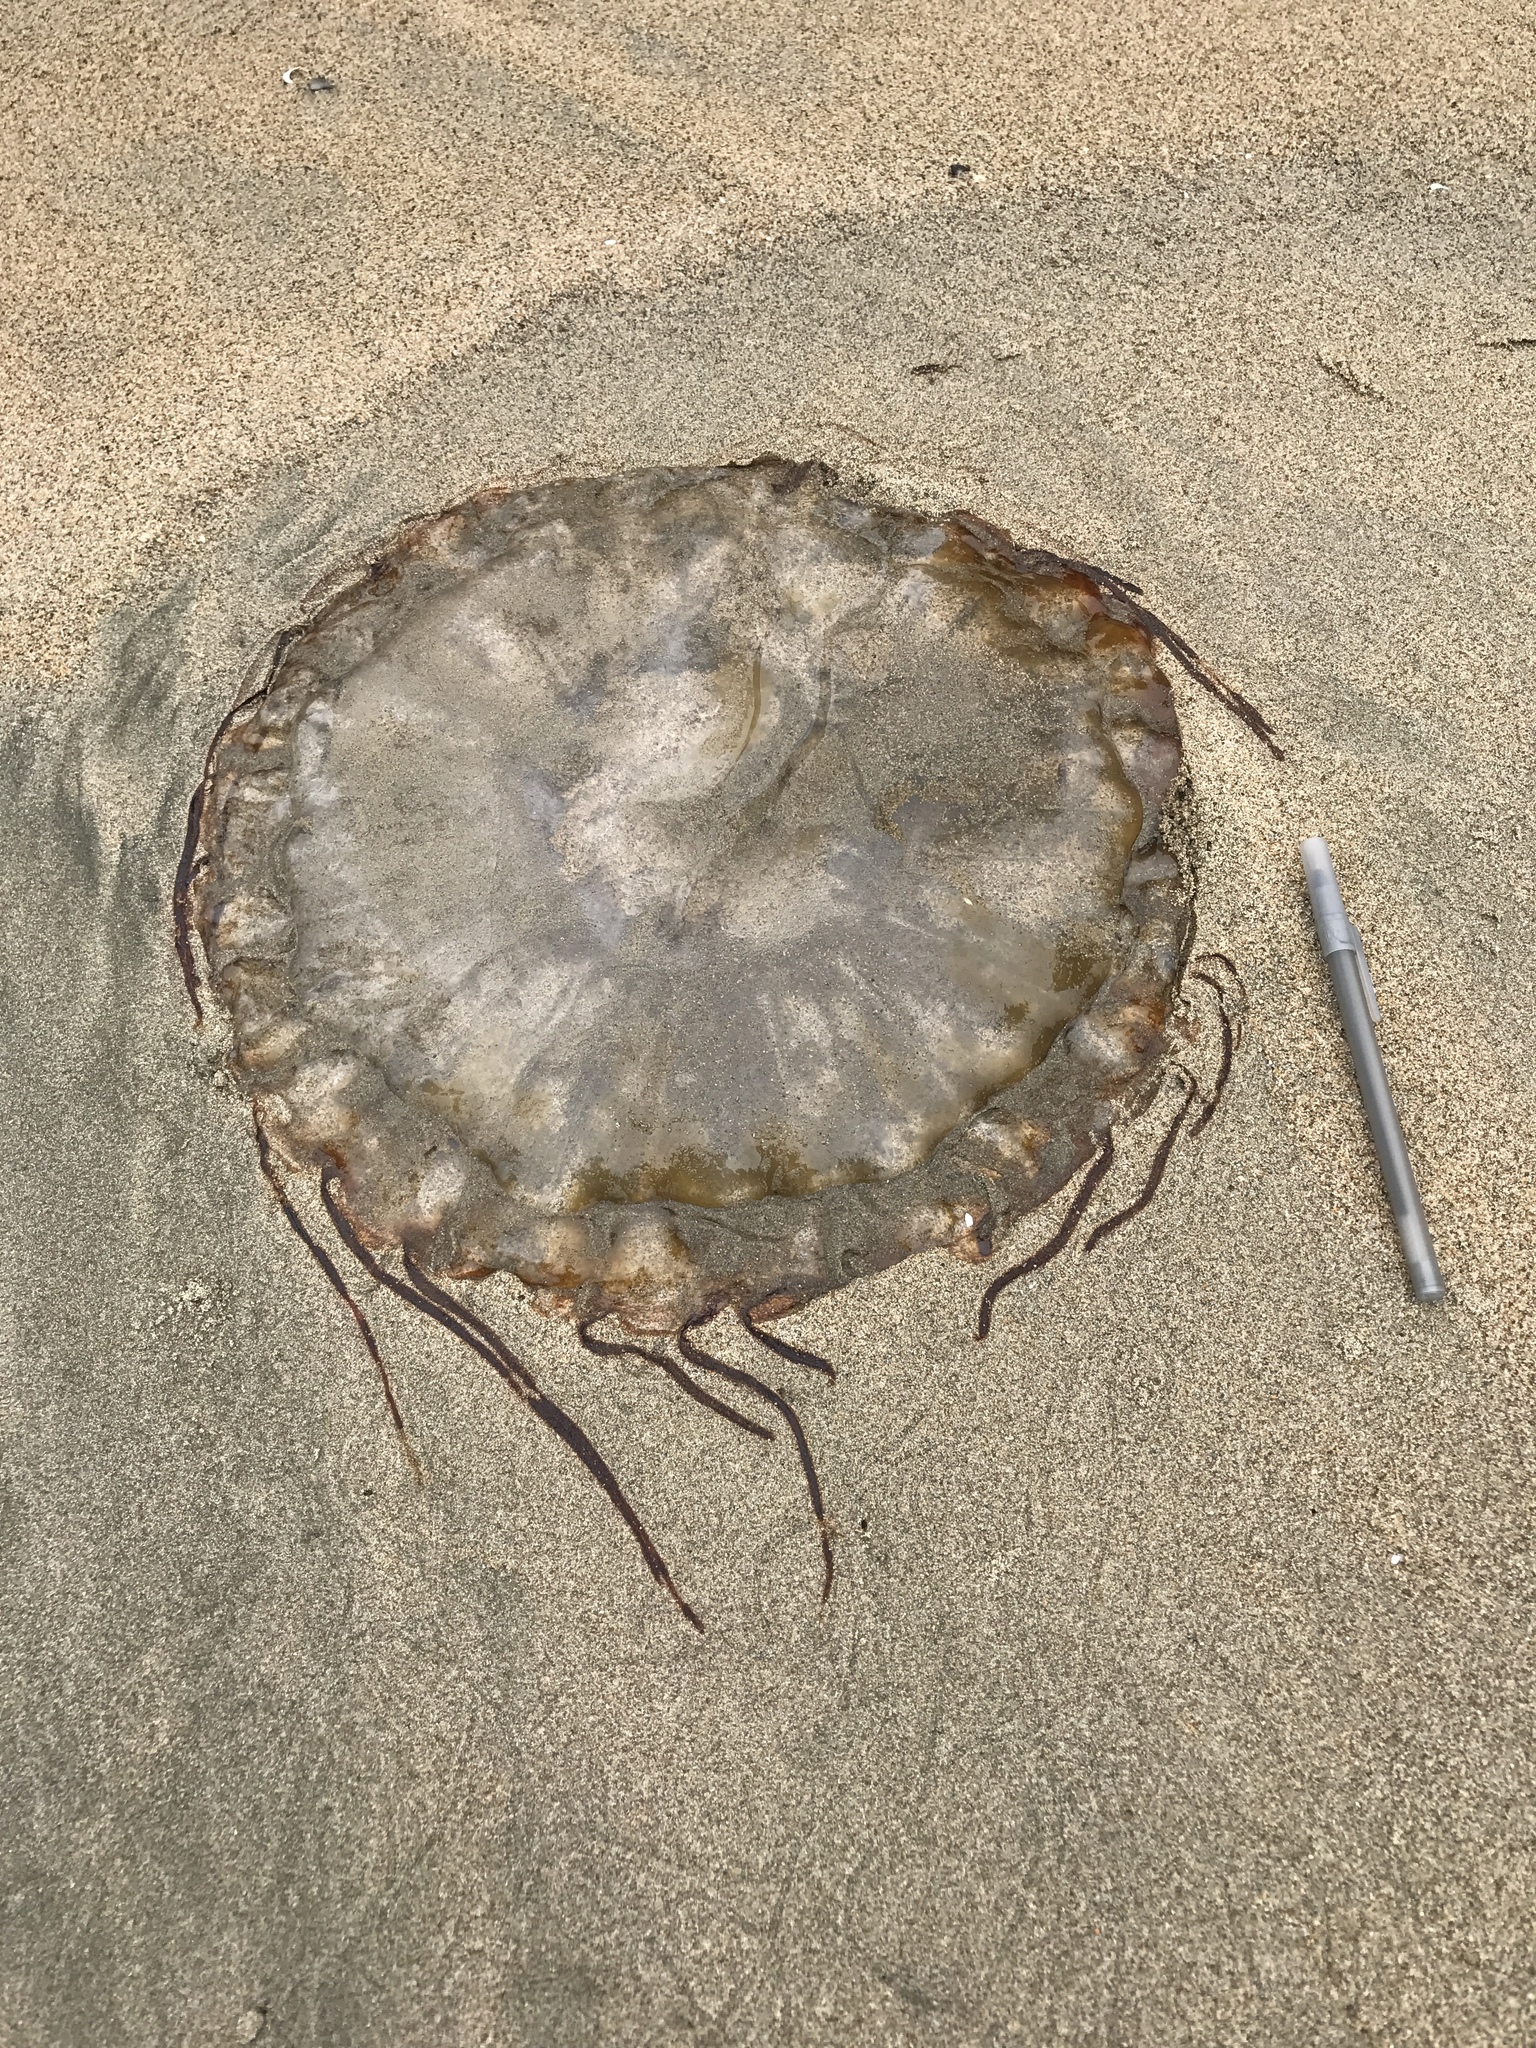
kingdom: Animalia
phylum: Cnidaria
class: Scyphozoa
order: Semaeostomeae
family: Pelagiidae
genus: Chrysaora
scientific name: Chrysaora fuscescens
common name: Sea nettle
